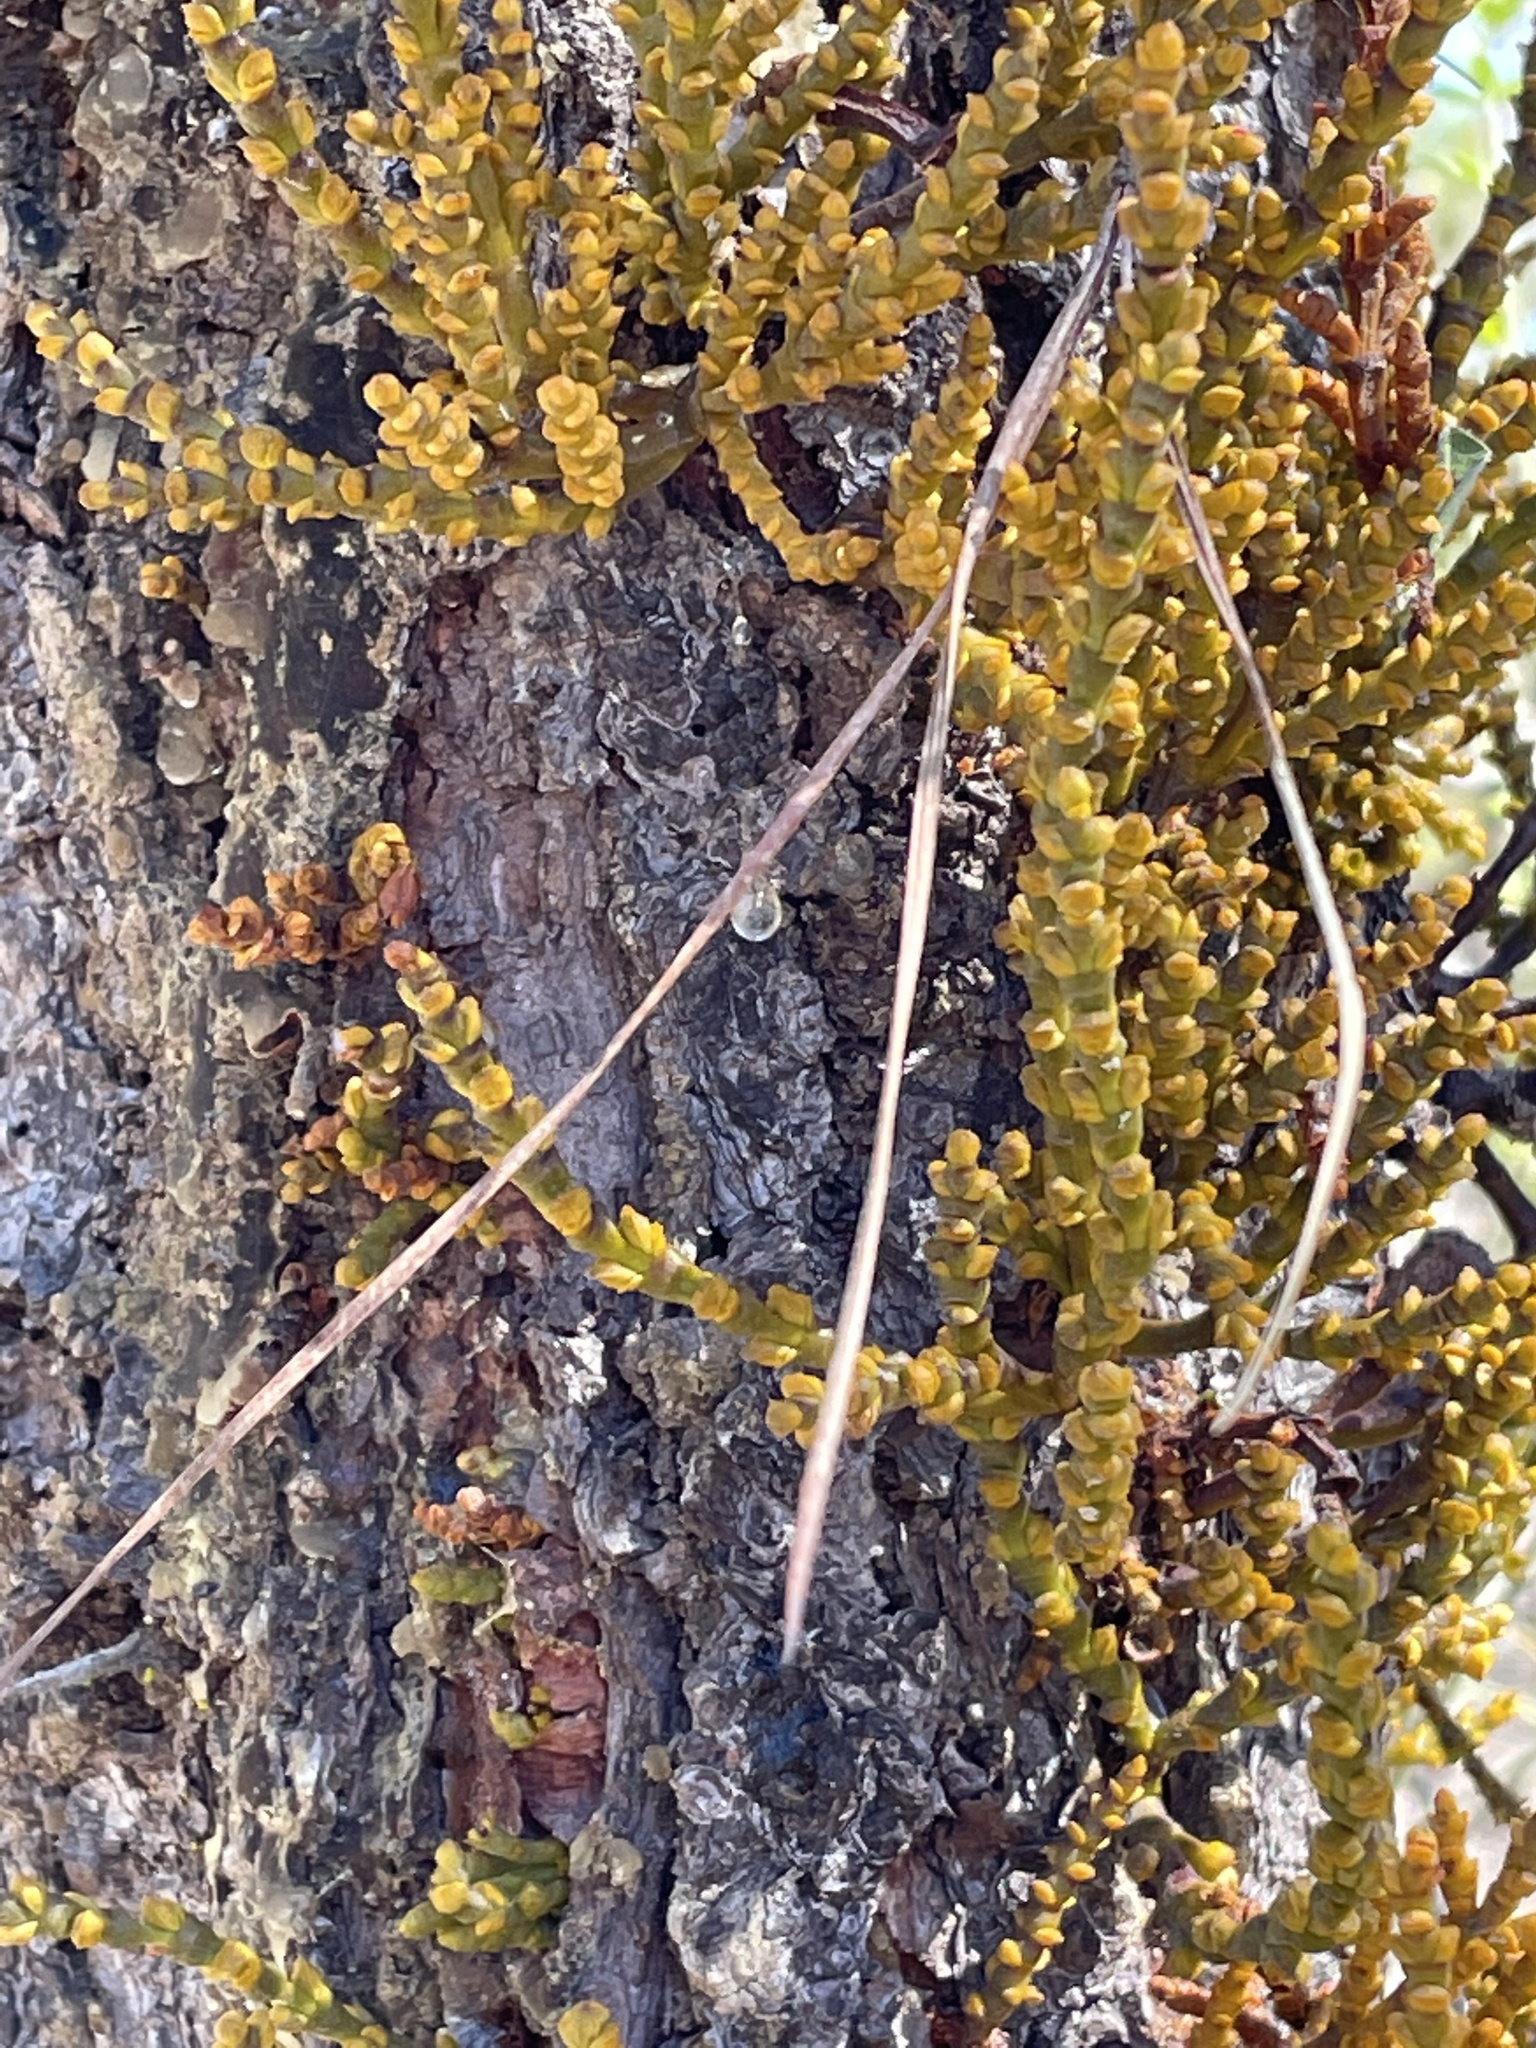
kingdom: Plantae
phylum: Tracheophyta
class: Magnoliopsida
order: Santalales
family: Viscaceae
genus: Arceuthobium
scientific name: Arceuthobium campylopodum
